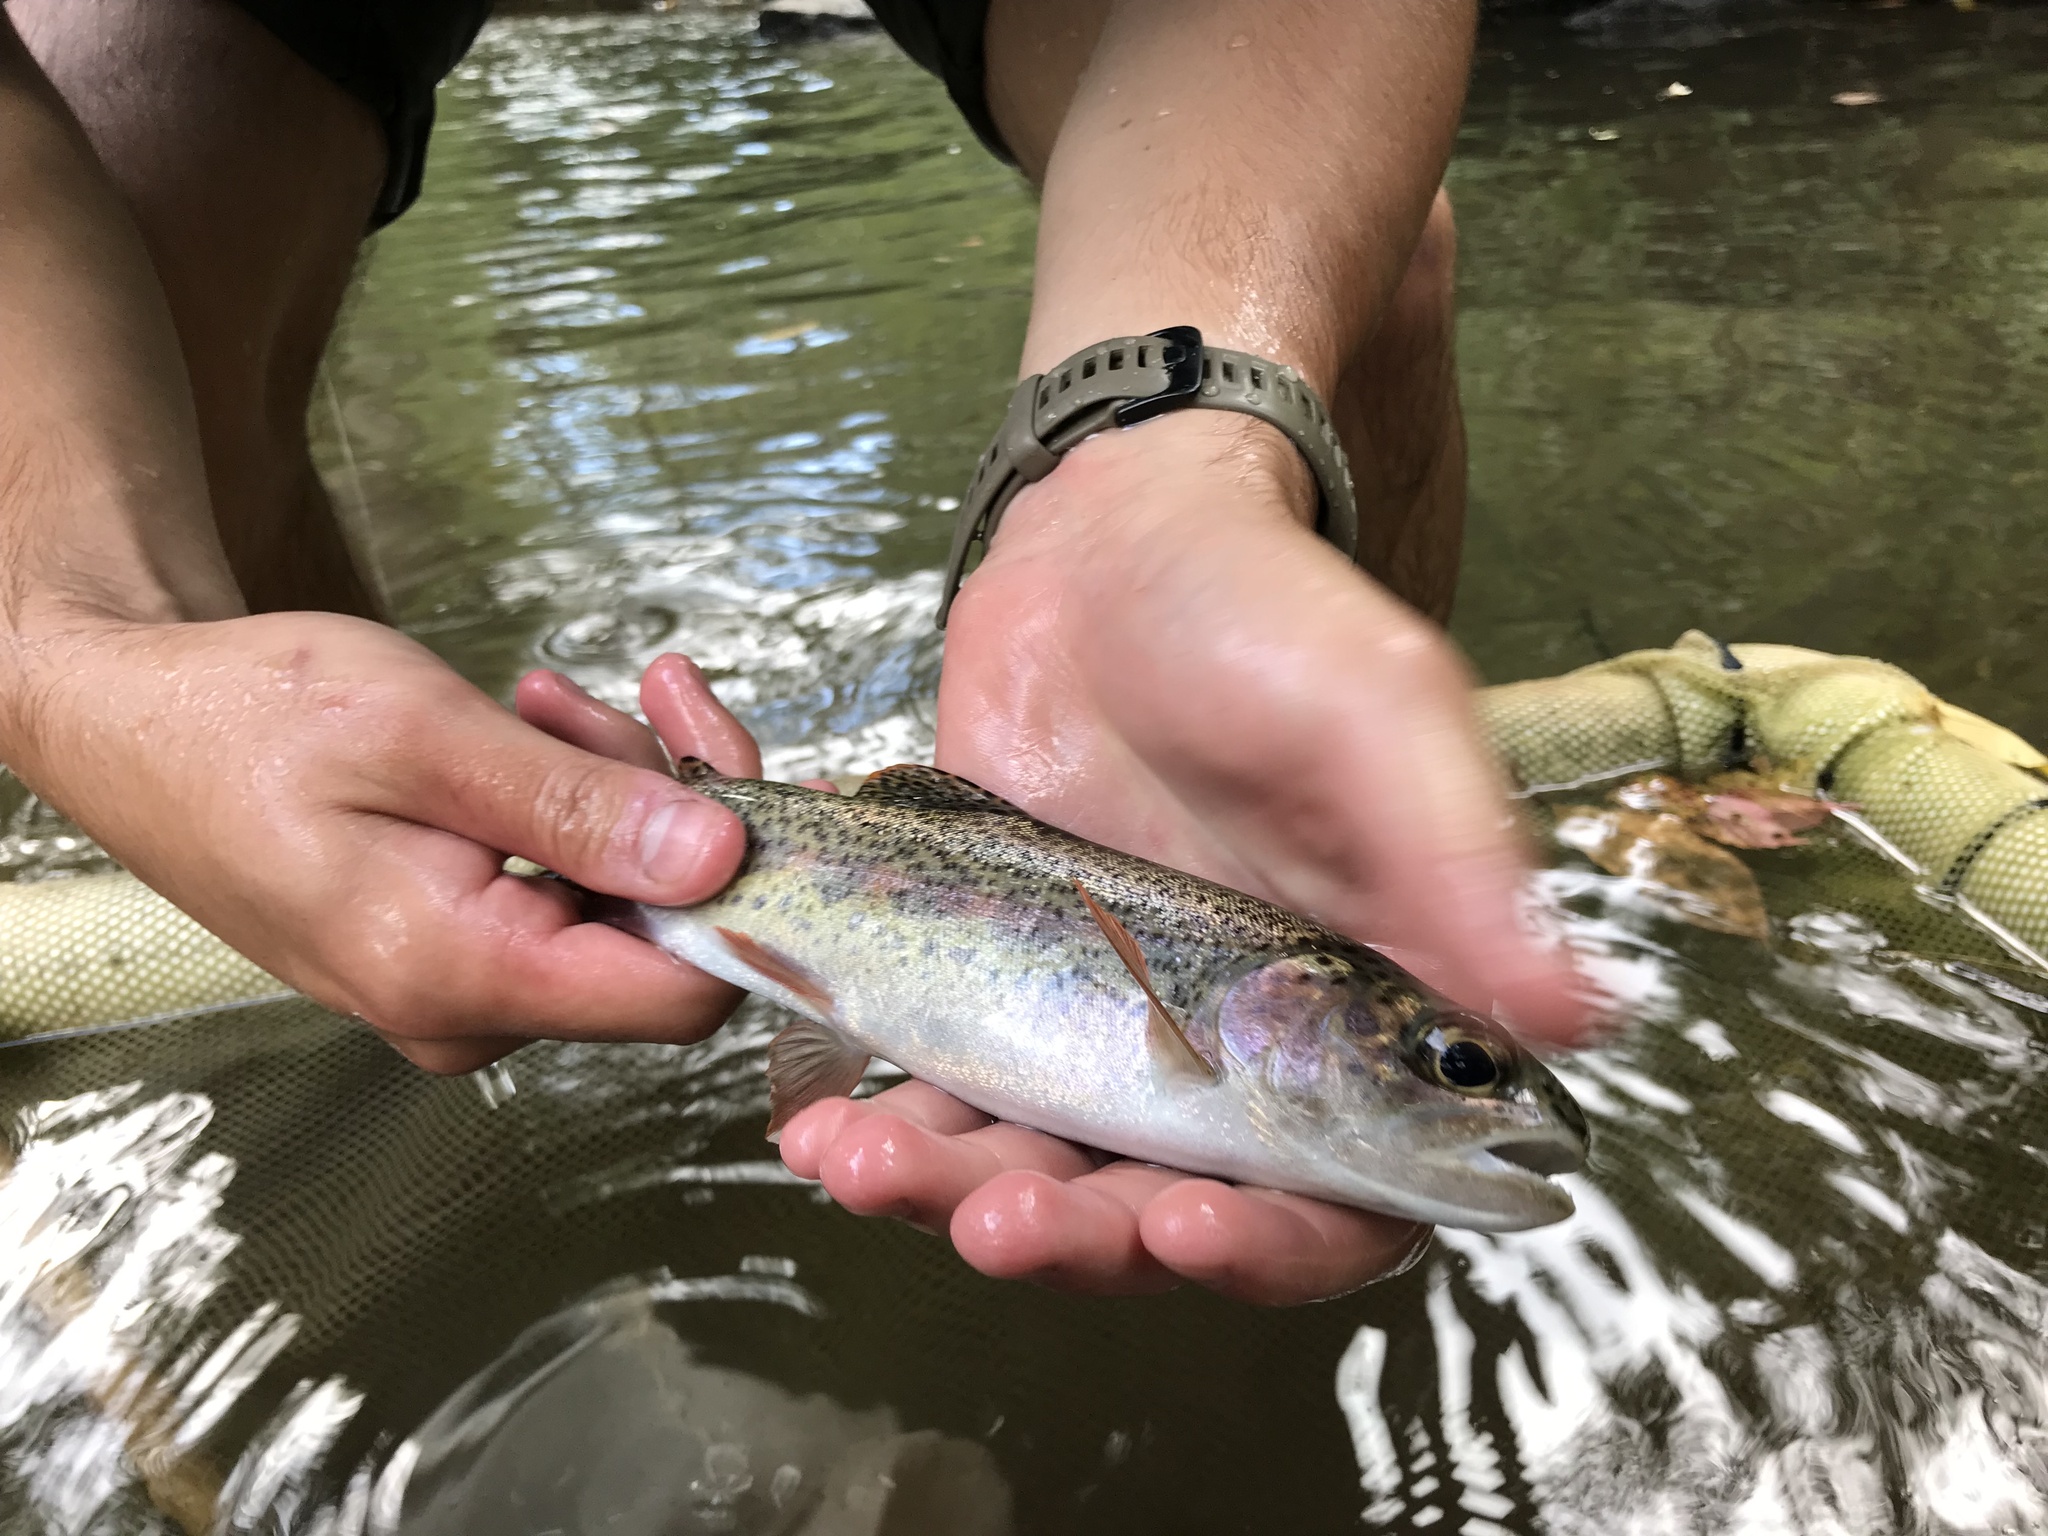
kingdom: Animalia
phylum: Chordata
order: Salmoniformes
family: Salmonidae
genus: Oncorhynchus
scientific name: Oncorhynchus mykiss
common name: Rainbow trout
